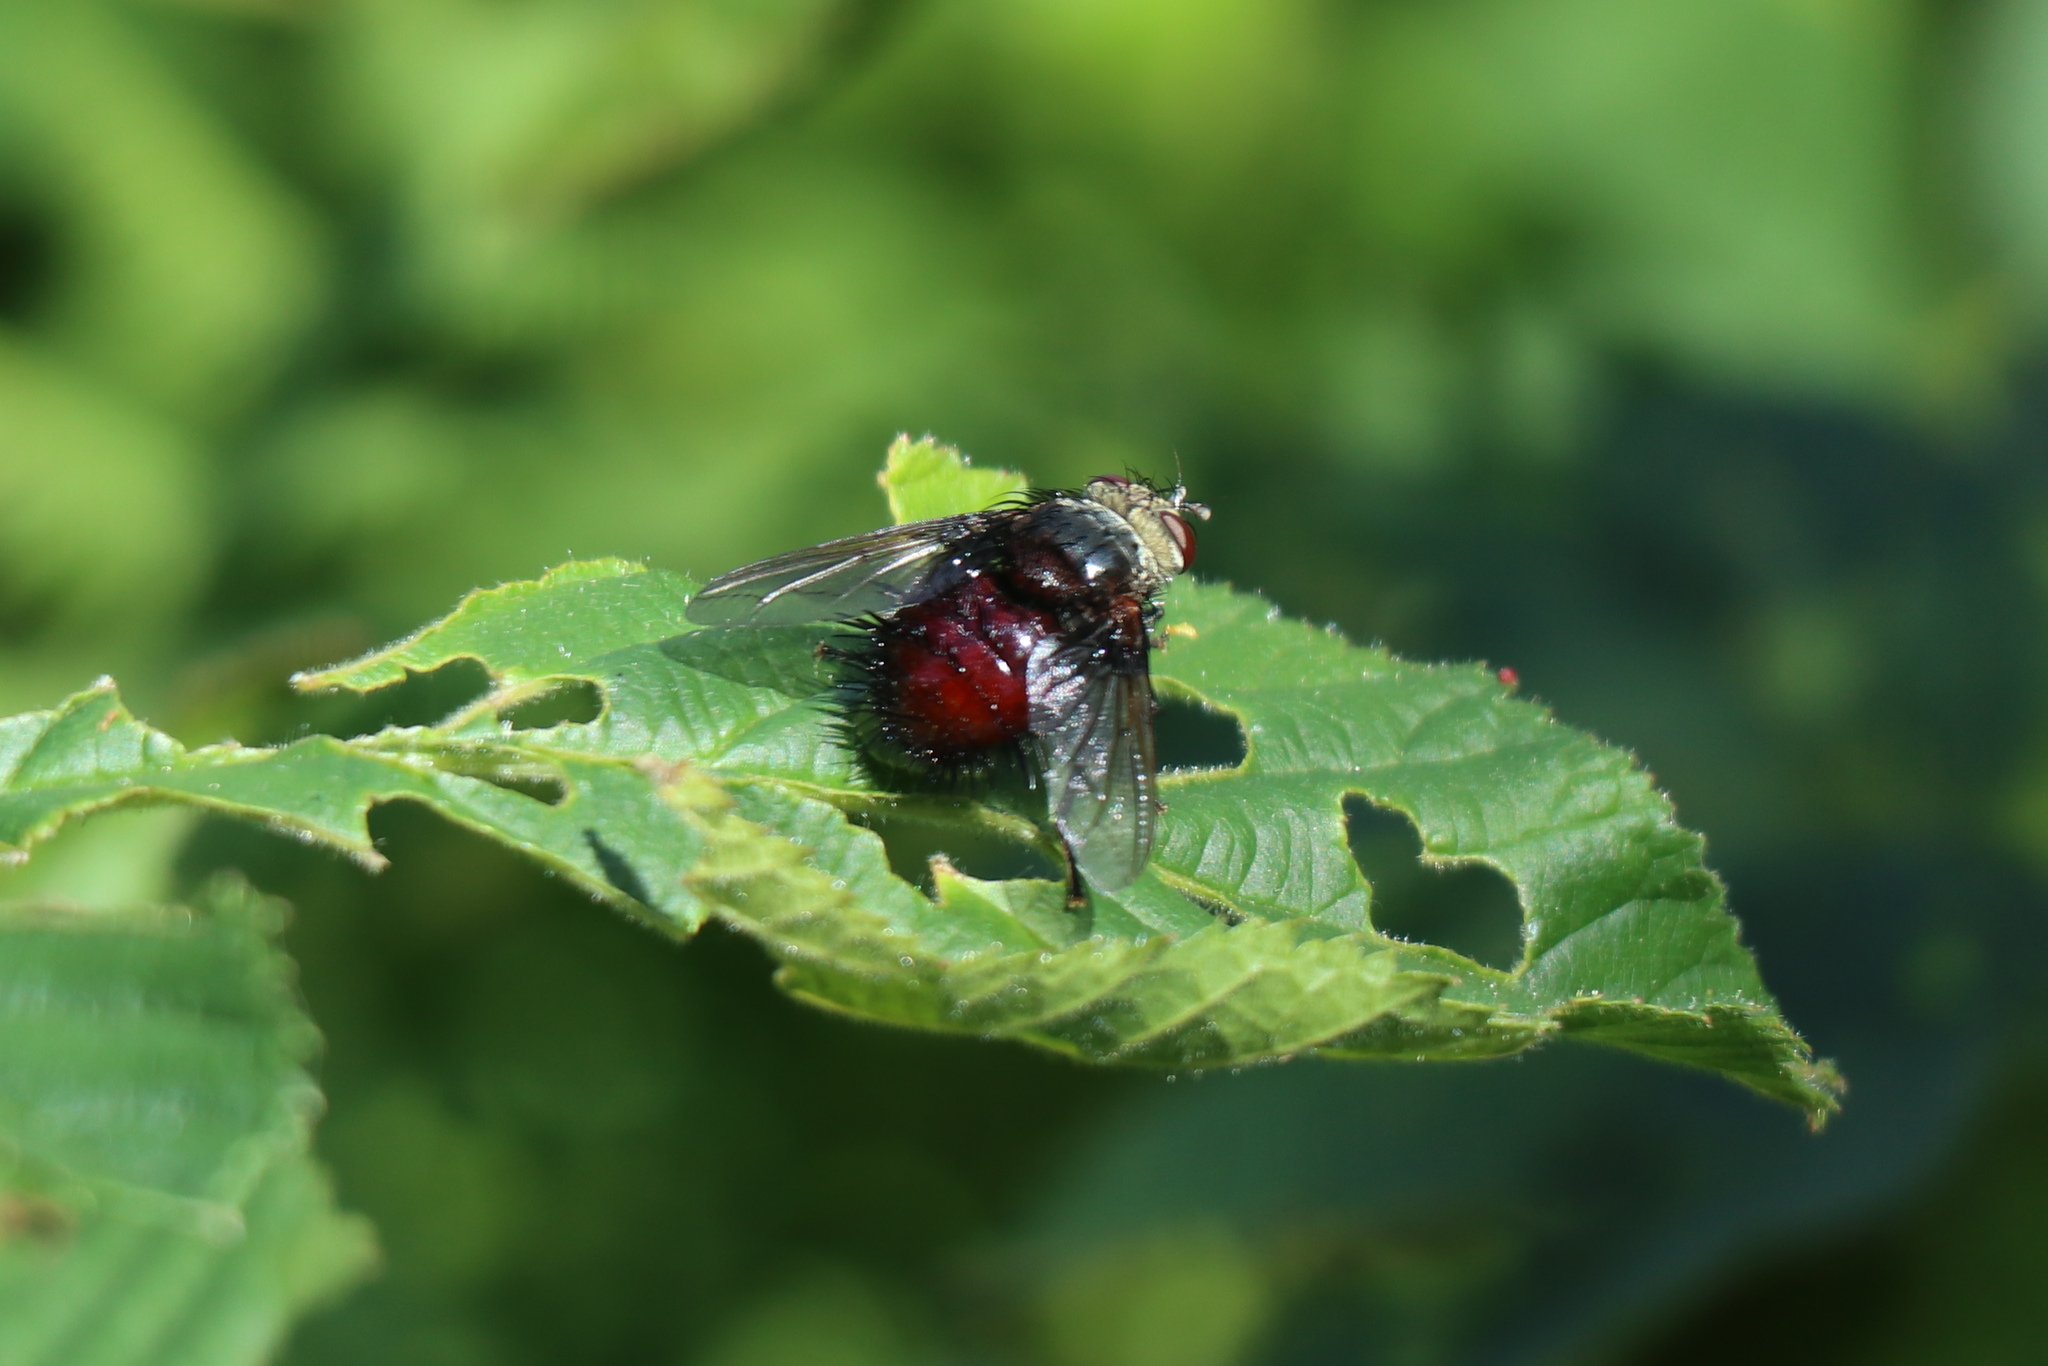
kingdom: Animalia
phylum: Arthropoda
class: Insecta
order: Diptera
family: Tachinidae
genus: Juriniopsis
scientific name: Juriniopsis adusta
